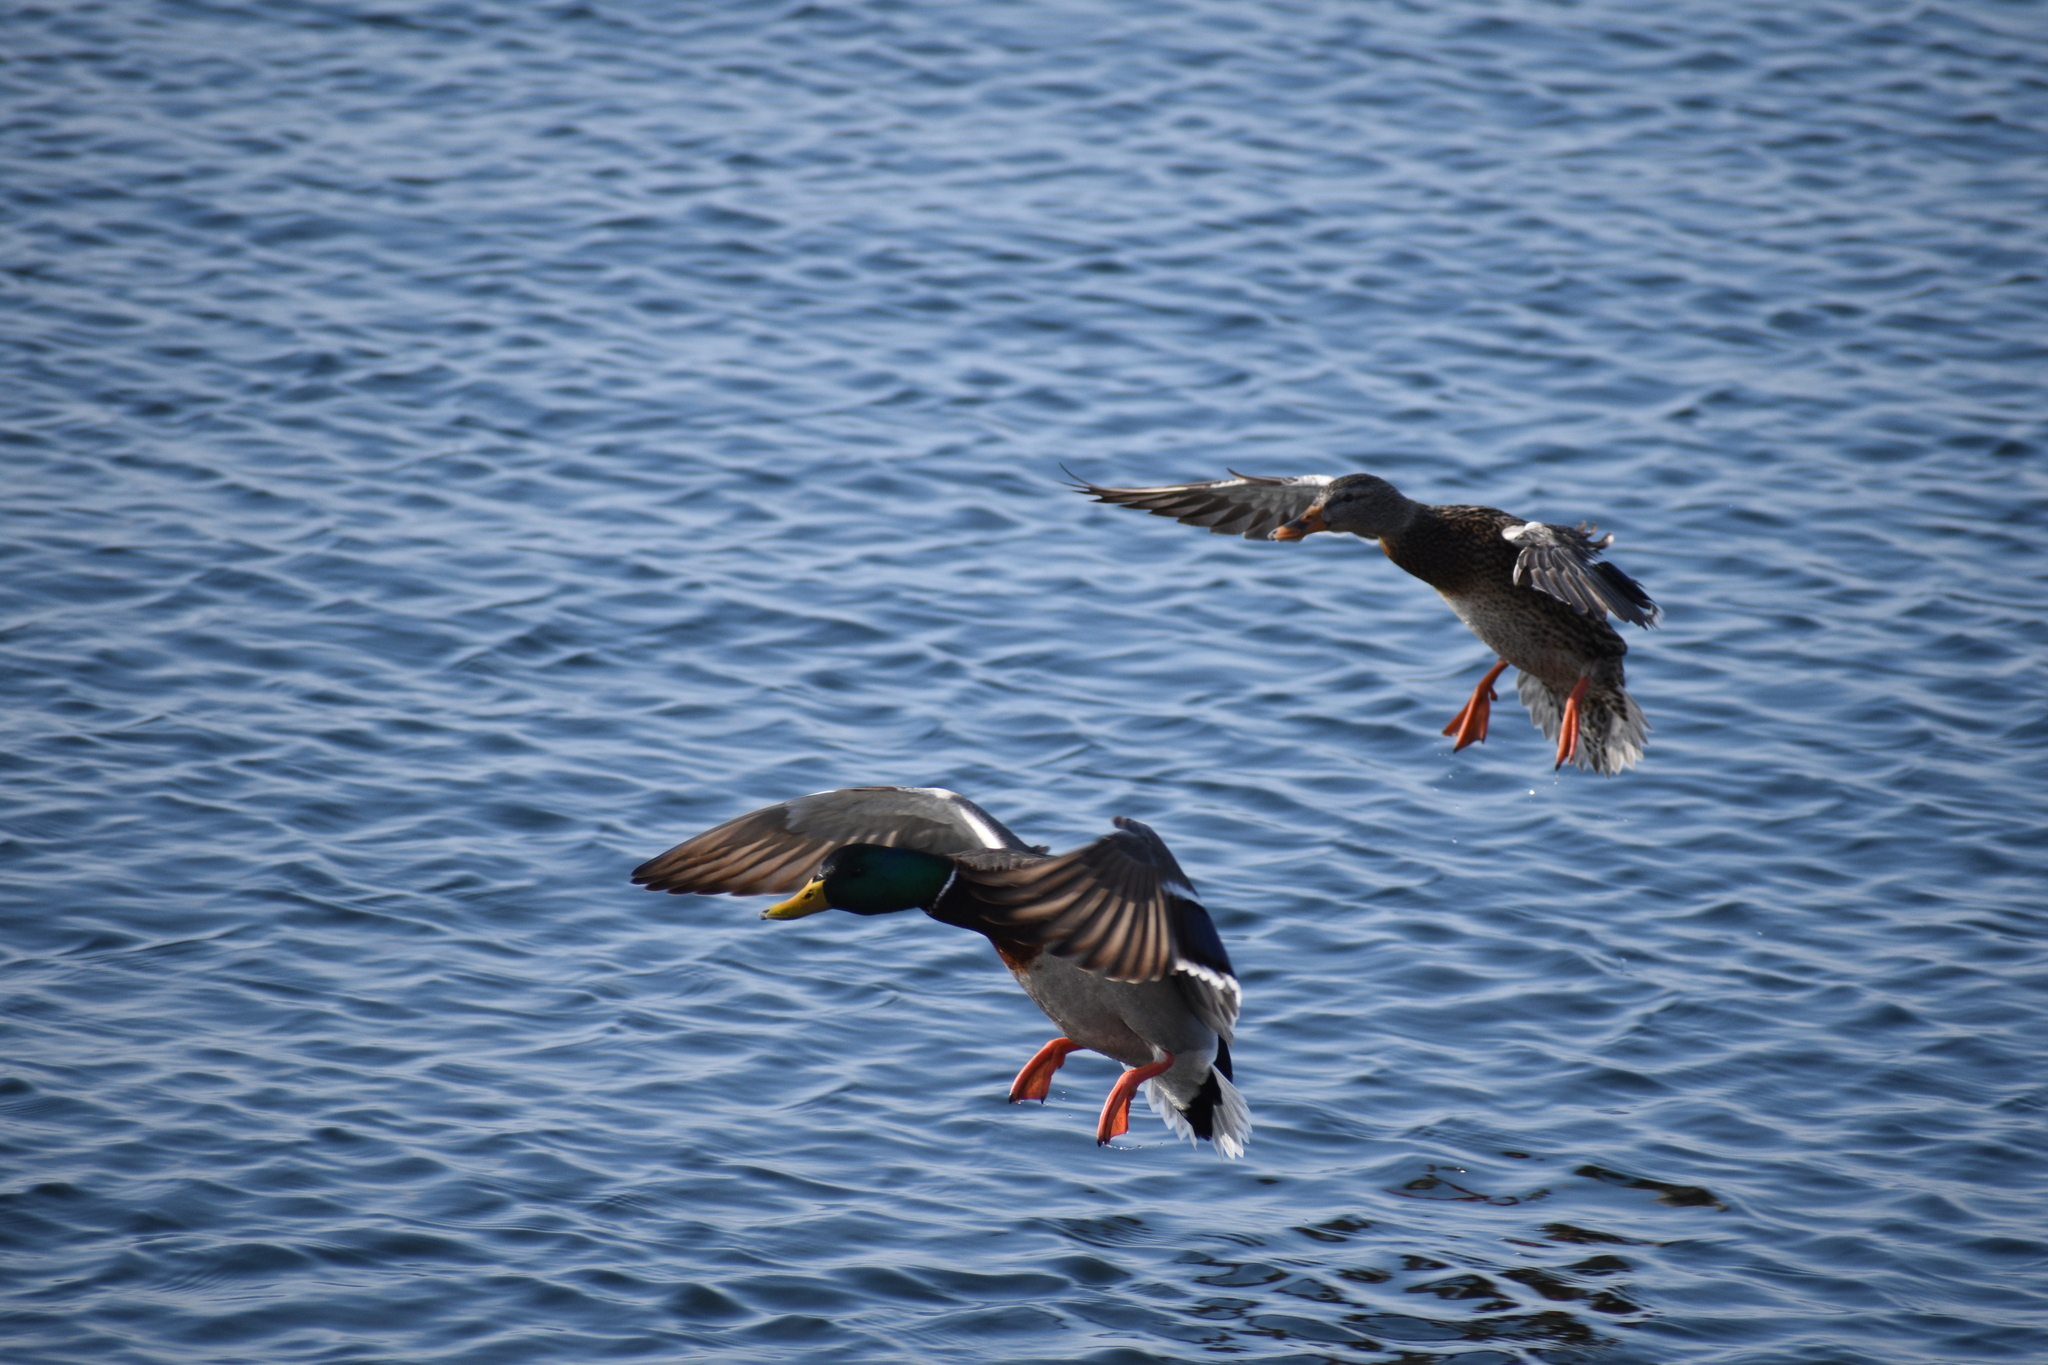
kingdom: Animalia
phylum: Chordata
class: Aves
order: Anseriformes
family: Anatidae
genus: Anas
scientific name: Anas platyrhynchos
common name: Mallard
